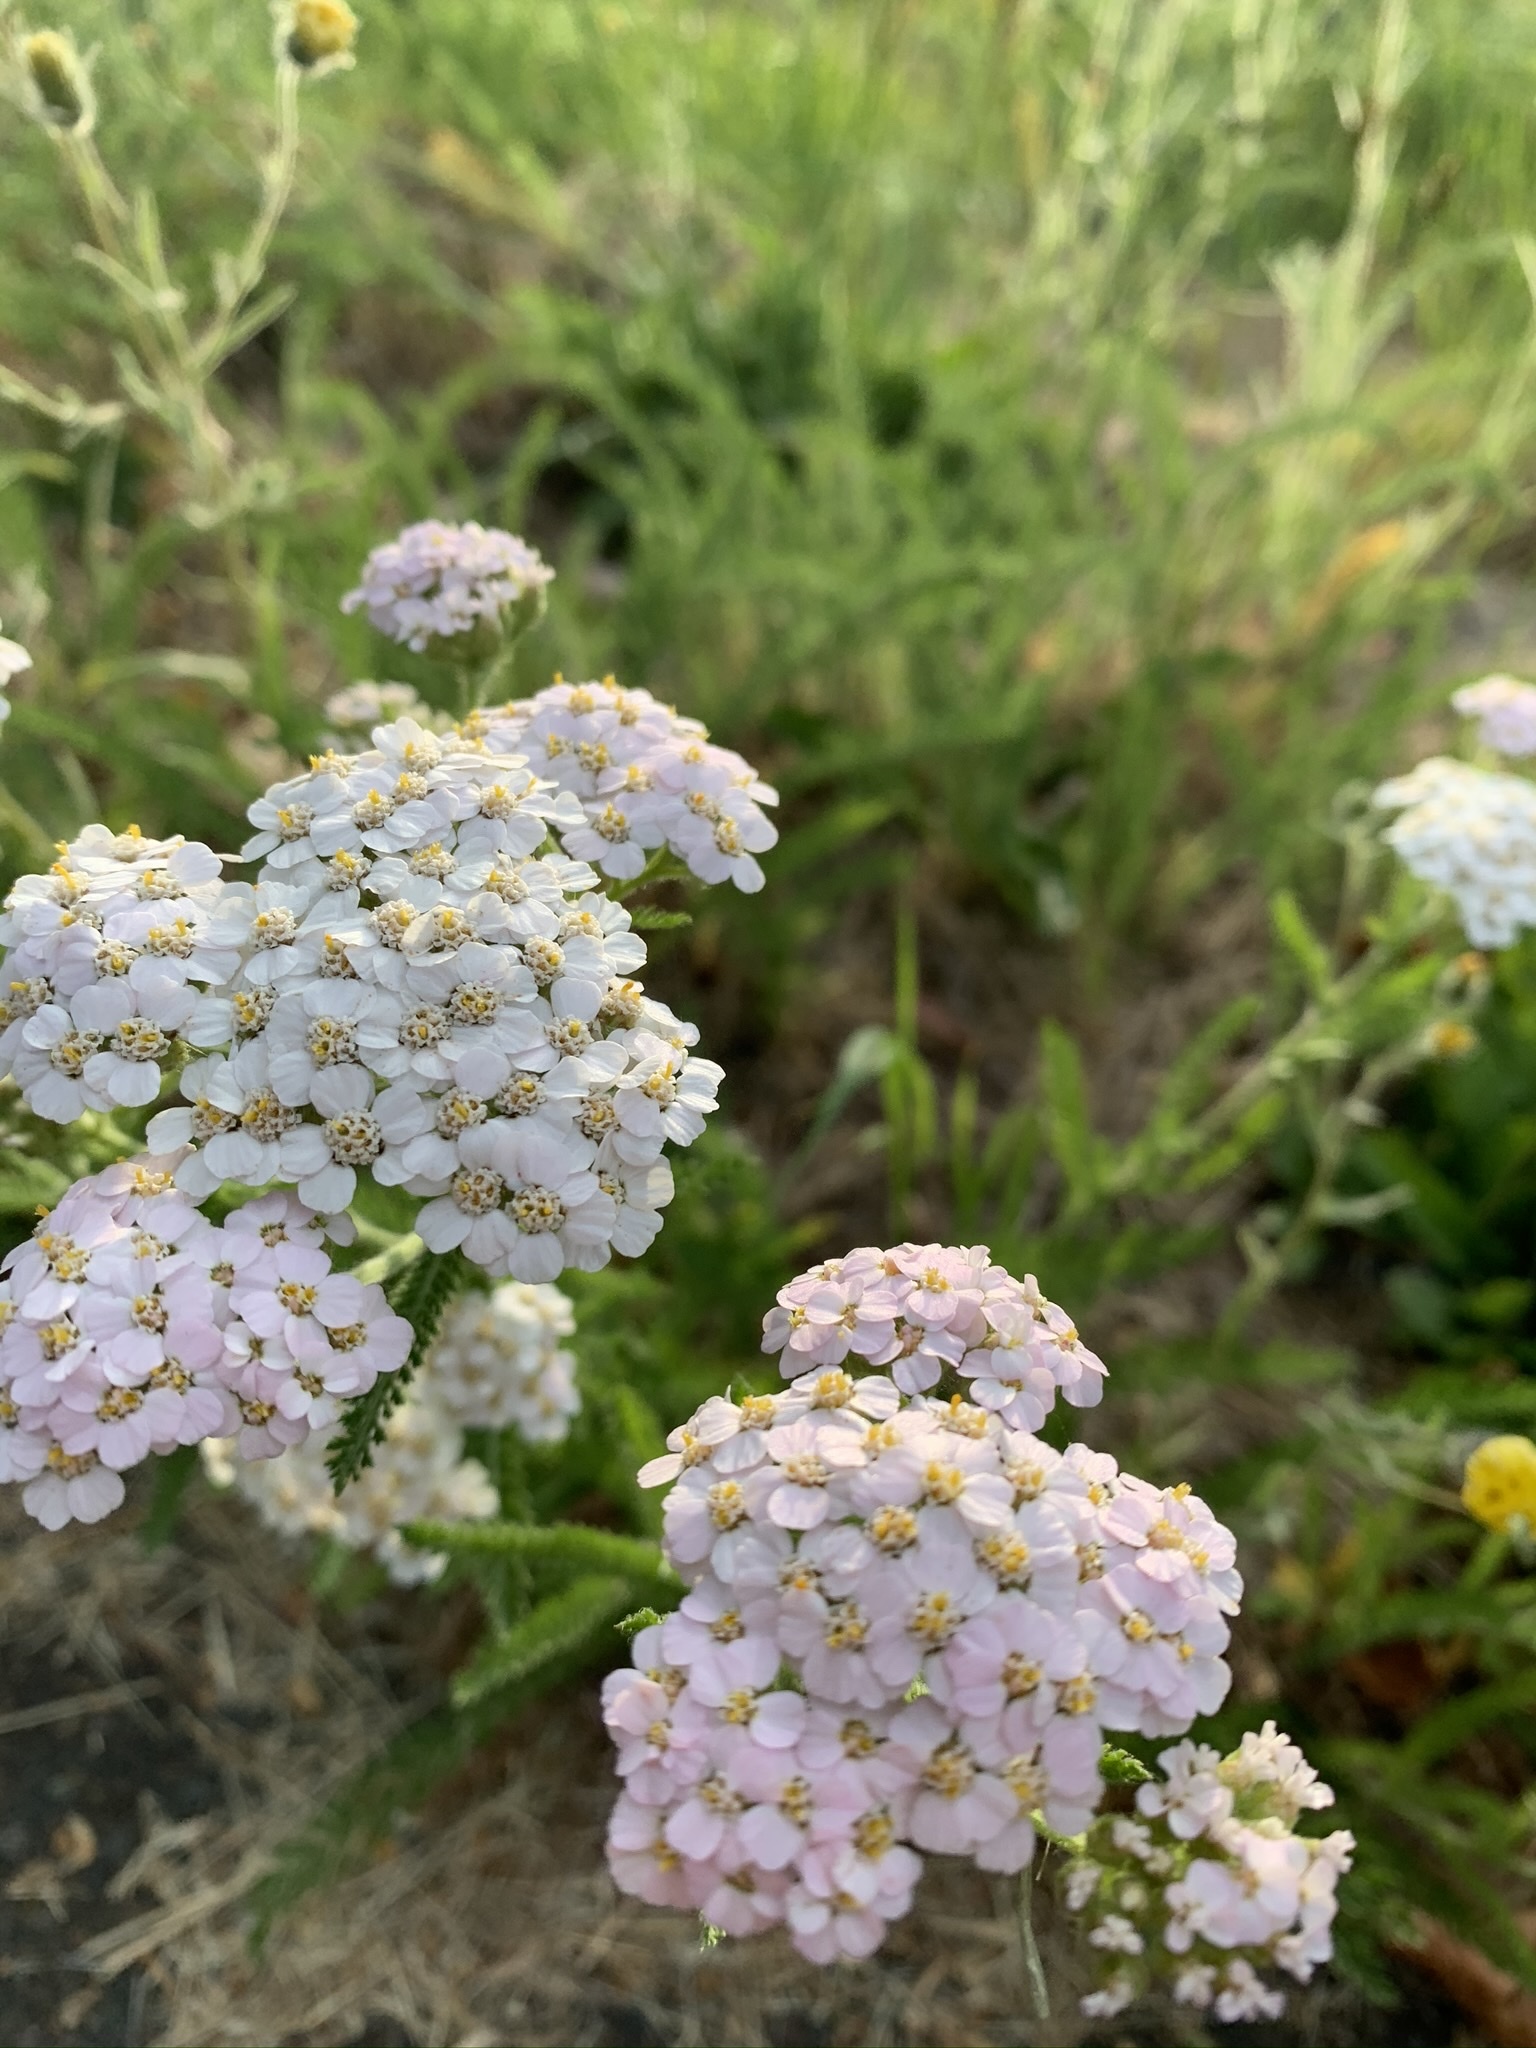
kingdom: Plantae
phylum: Tracheophyta
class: Magnoliopsida
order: Asterales
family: Asteraceae
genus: Achillea
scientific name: Achillea millefolium
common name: Yarrow
